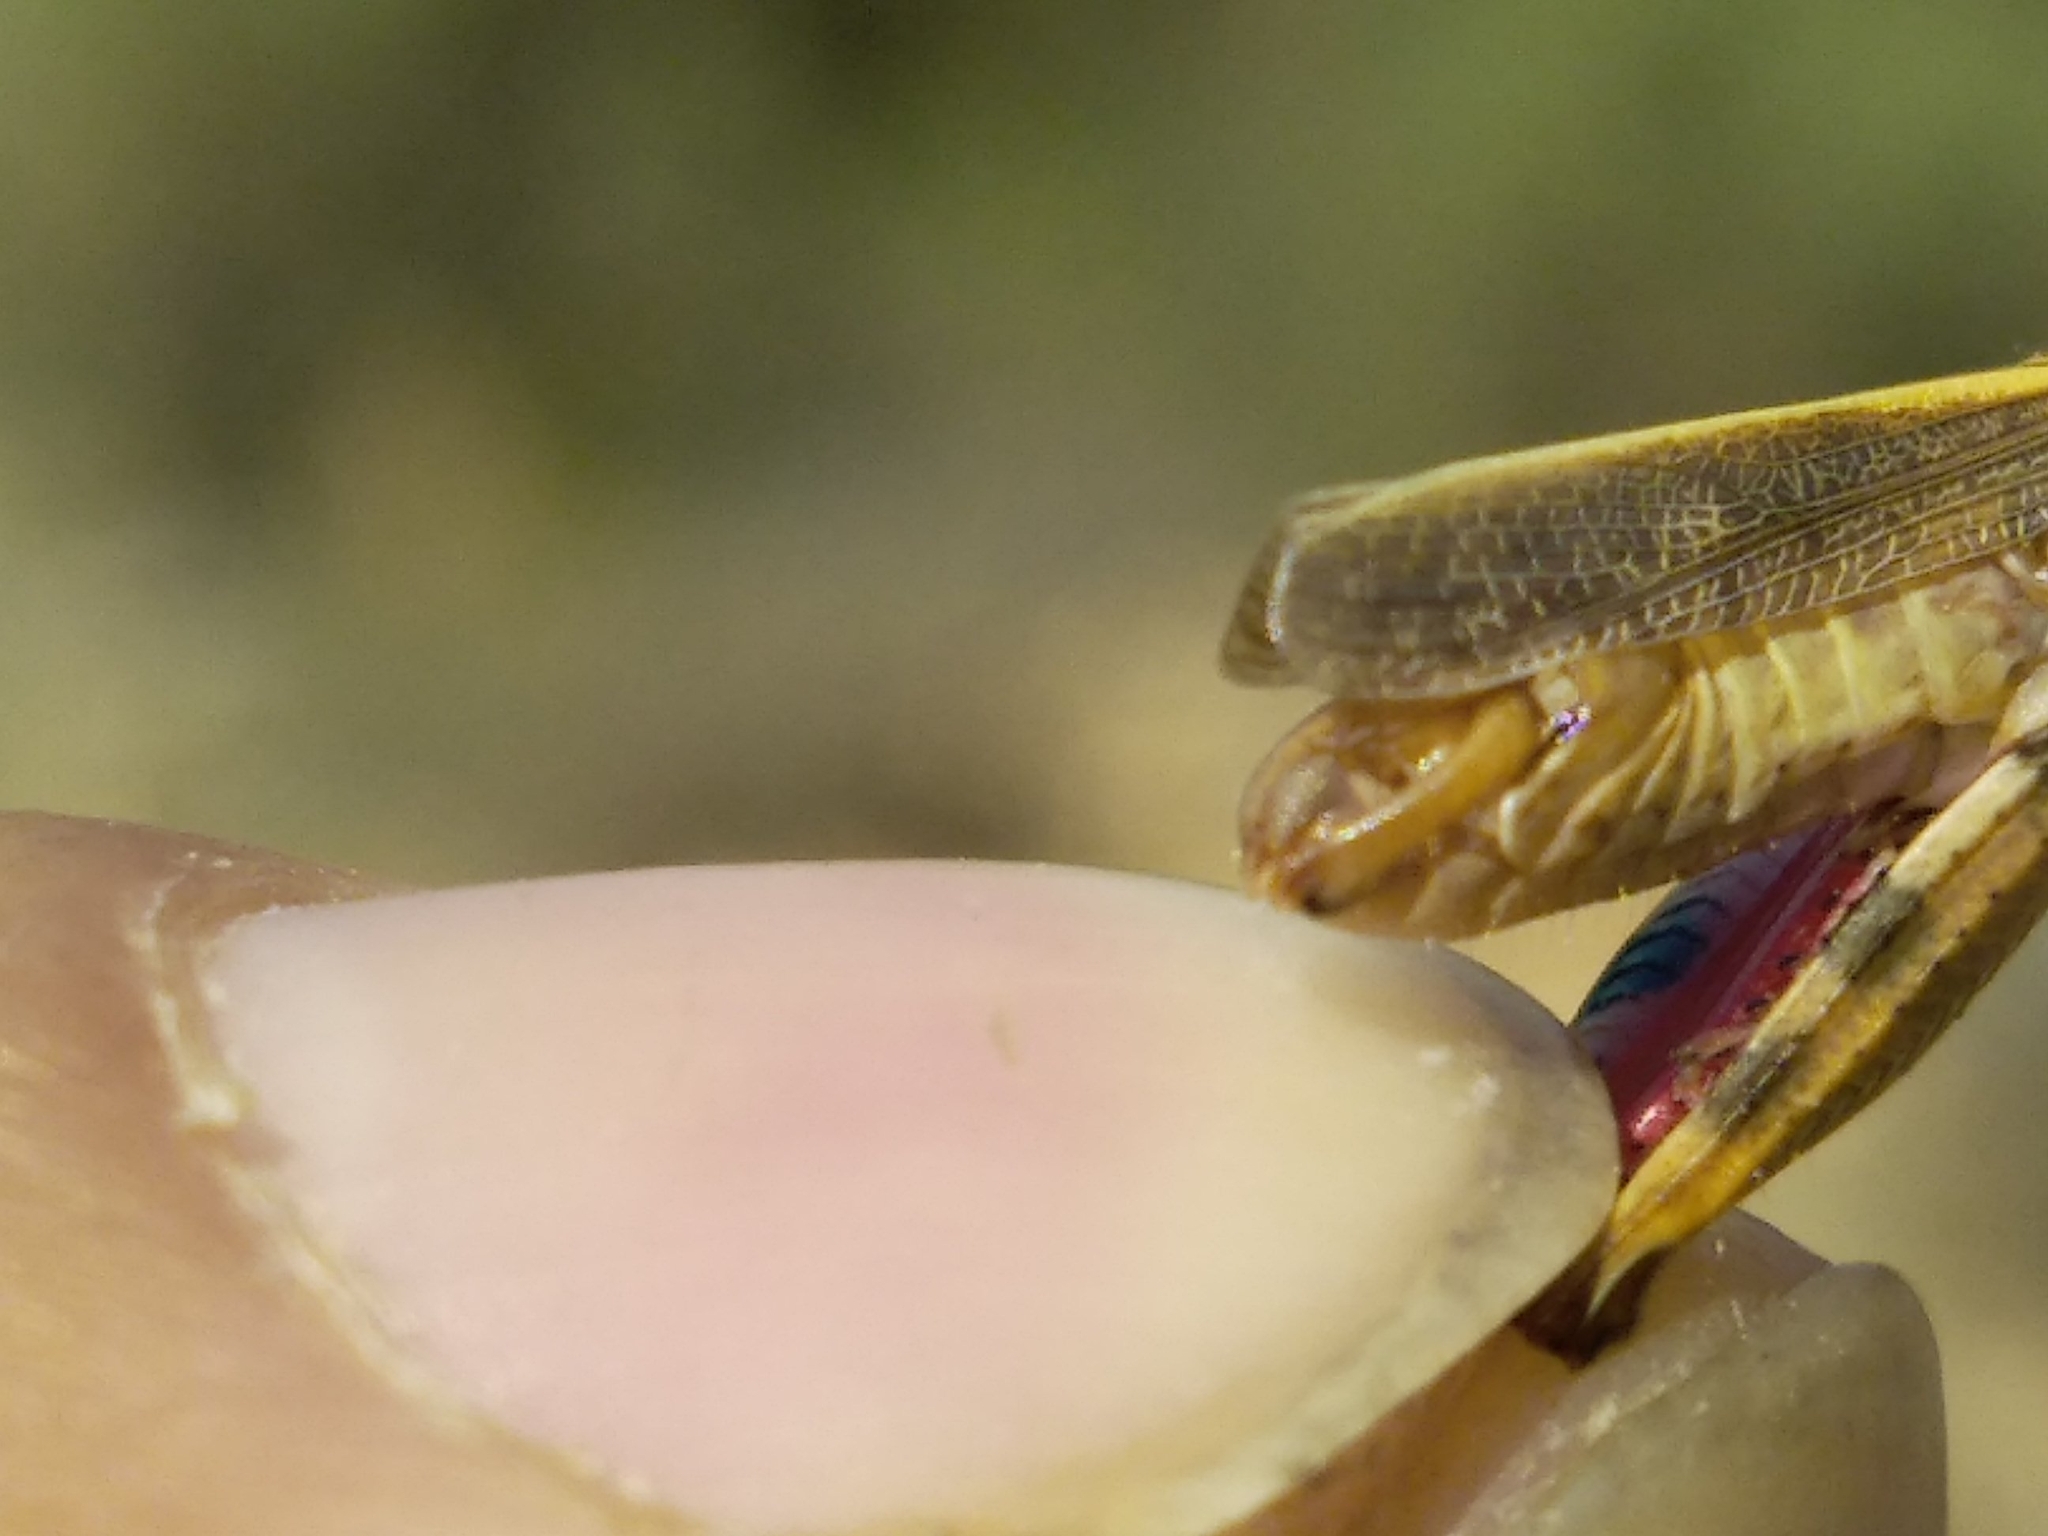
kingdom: Animalia
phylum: Arthropoda
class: Insecta
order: Orthoptera
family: Acrididae
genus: Calliptamus
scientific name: Calliptamus barbarus
